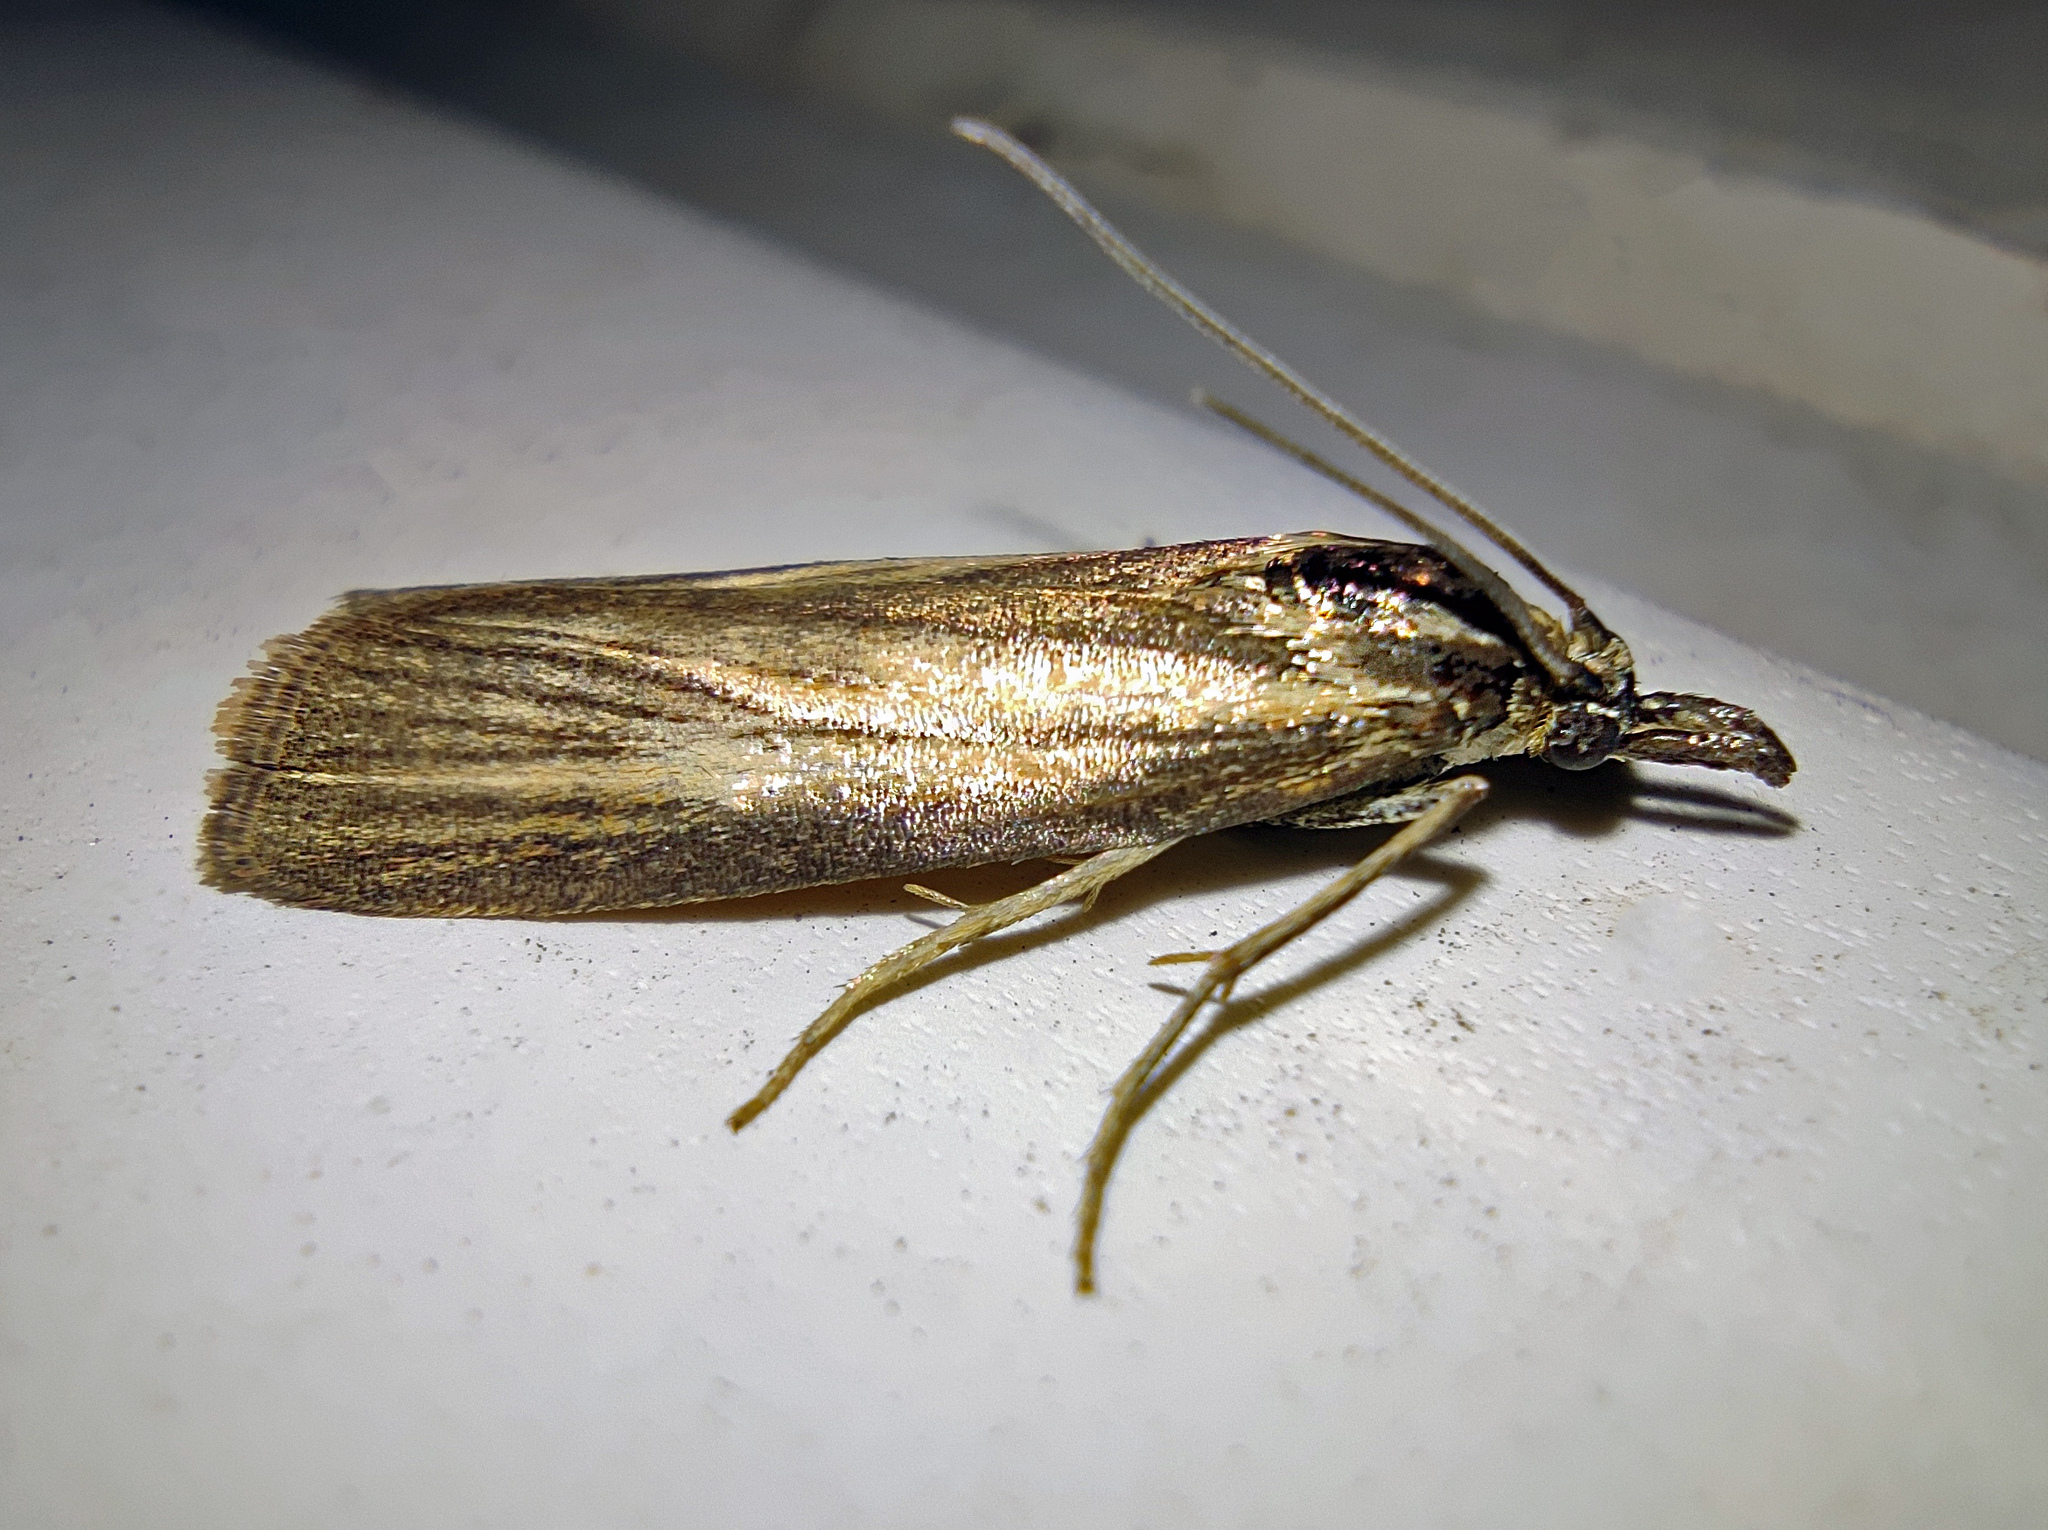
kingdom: Animalia
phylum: Arthropoda
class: Insecta
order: Lepidoptera
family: Pyralidae
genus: Hypochalcia
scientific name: Hypochalcia dignella
